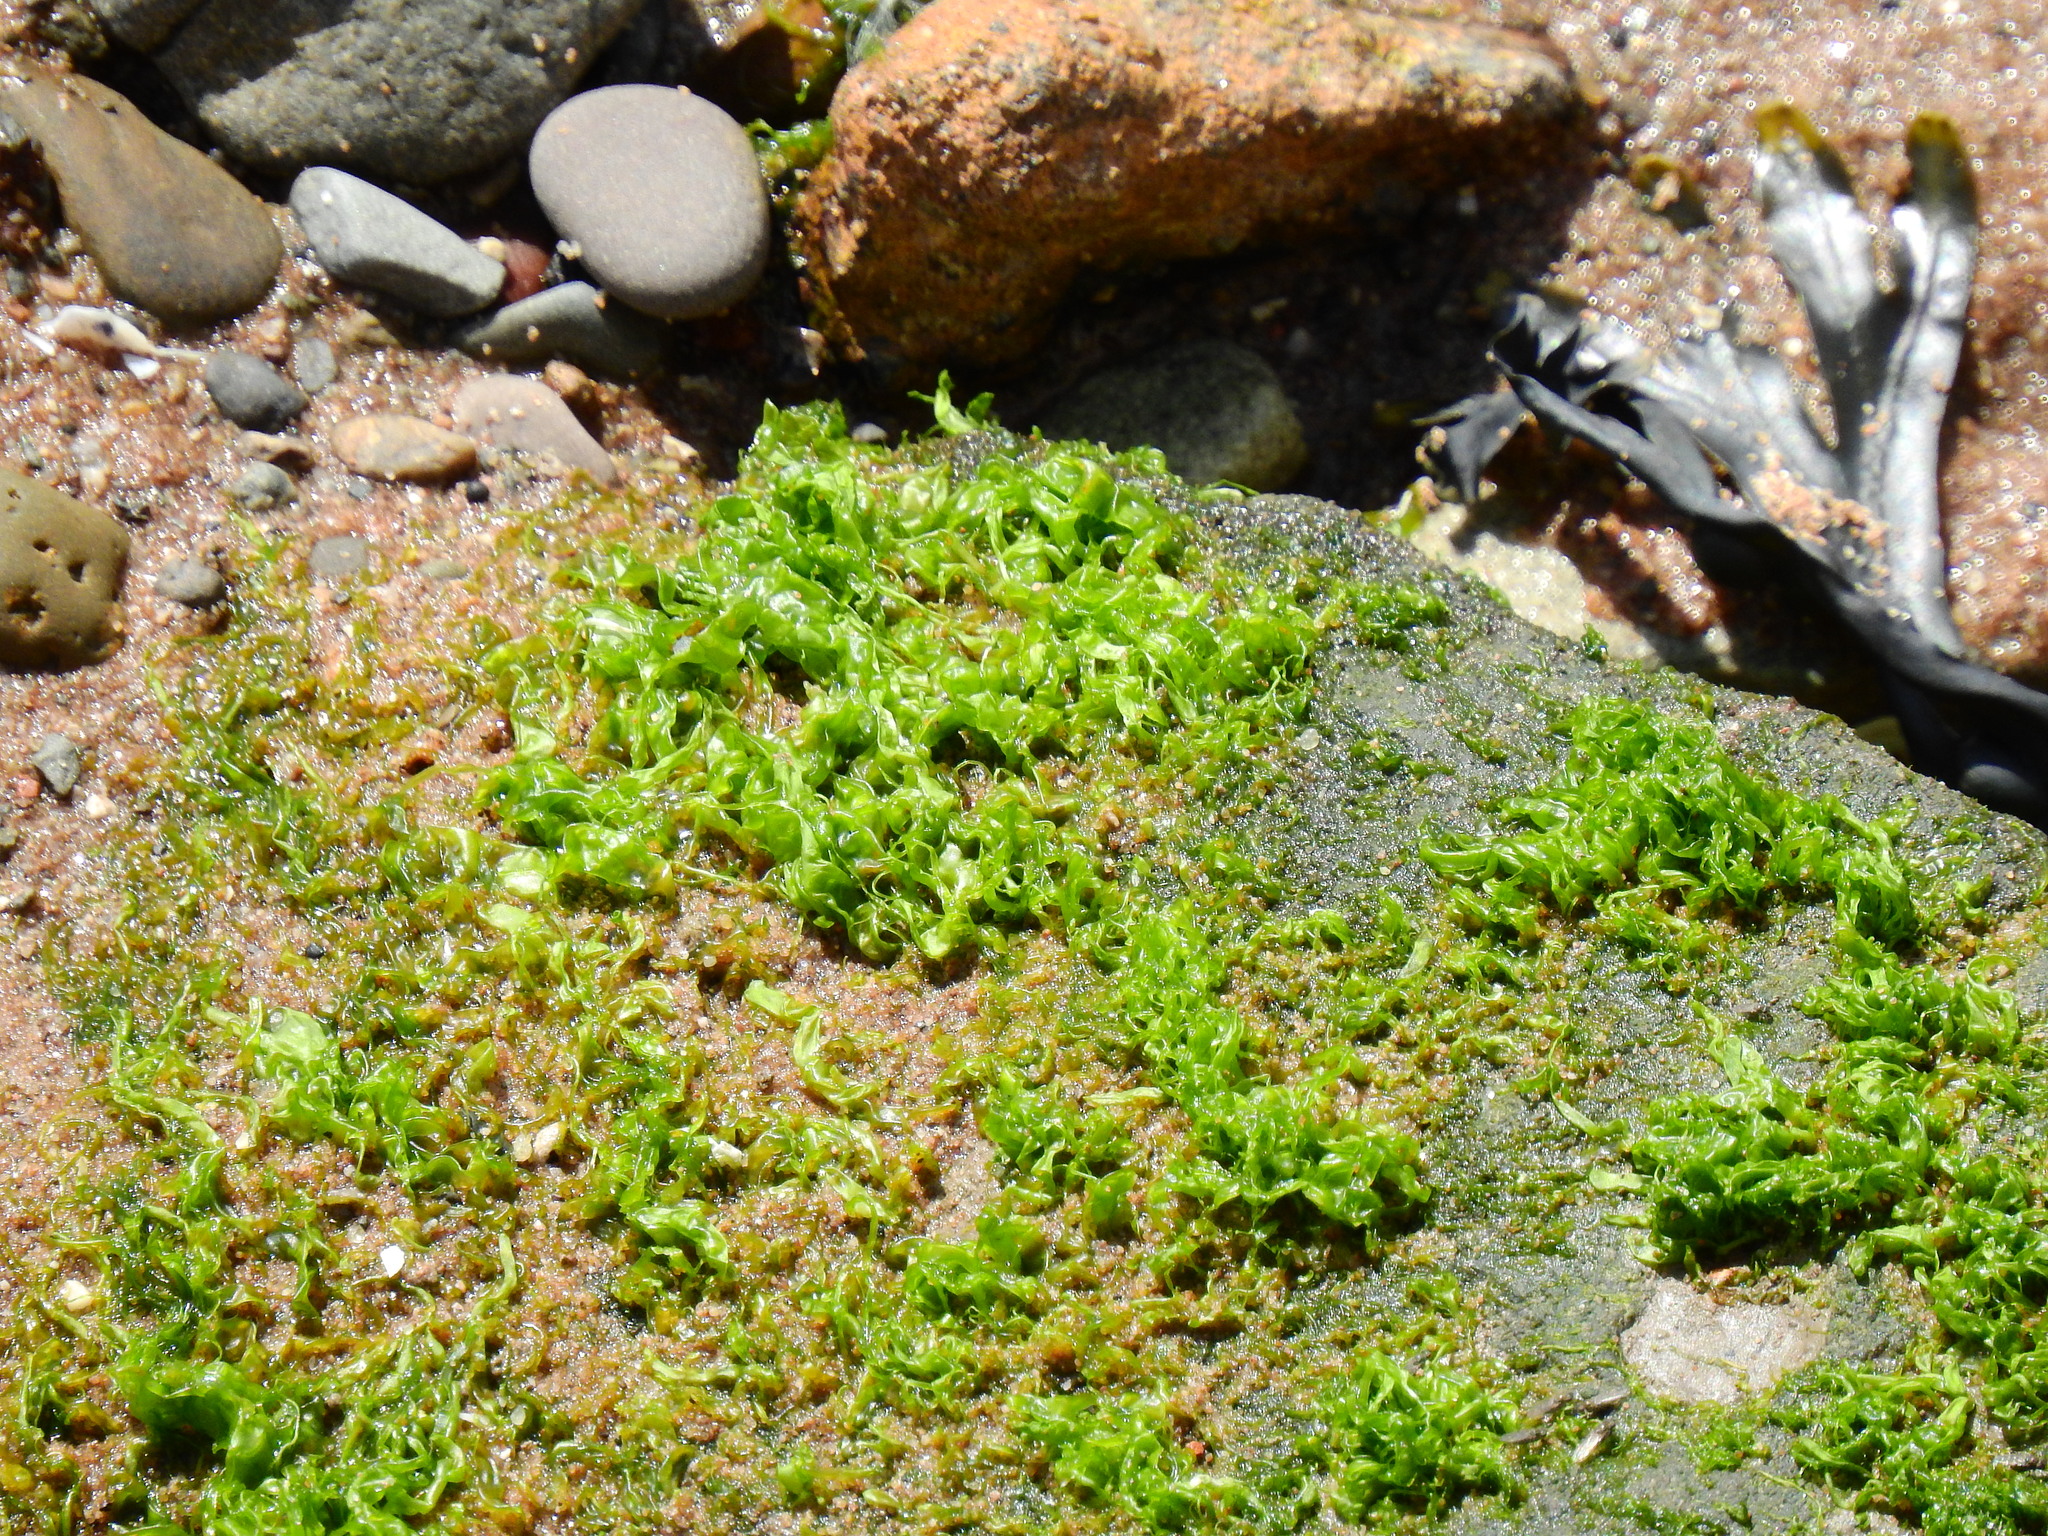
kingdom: Plantae
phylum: Chlorophyta
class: Ulvophyceae
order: Ulvales
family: Ulvaceae
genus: Ulva
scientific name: Ulva intestinalis
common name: Gut weed
